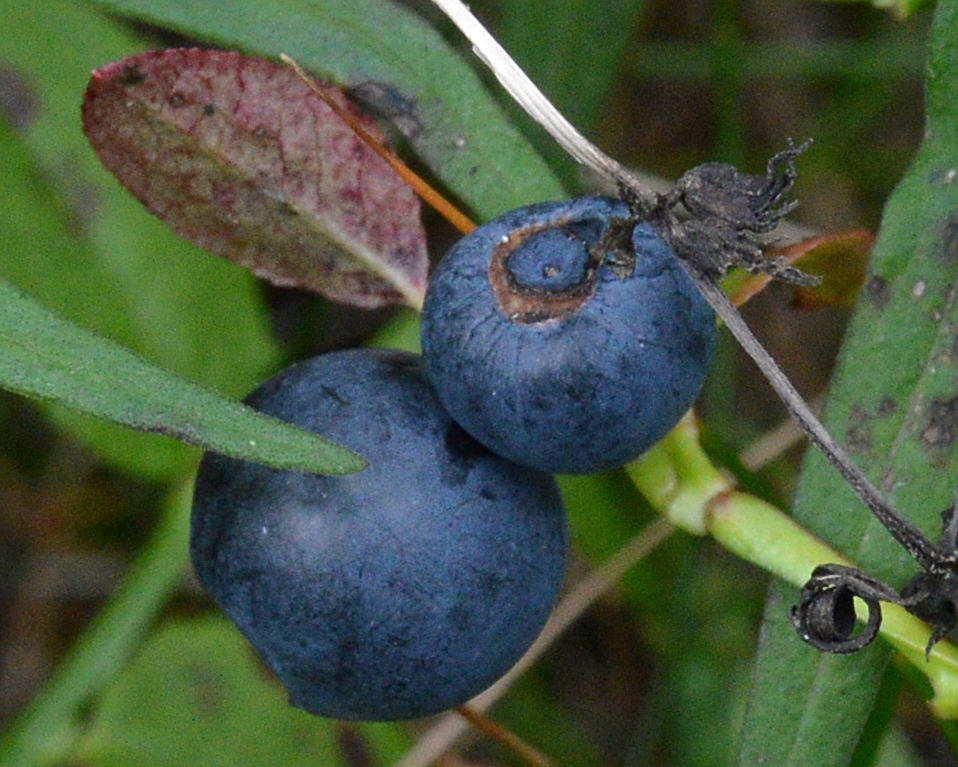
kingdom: Plantae
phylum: Tracheophyta
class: Magnoliopsida
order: Ericales
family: Ericaceae
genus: Vaccinium
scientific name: Vaccinium myrtillus
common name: Bilberry
